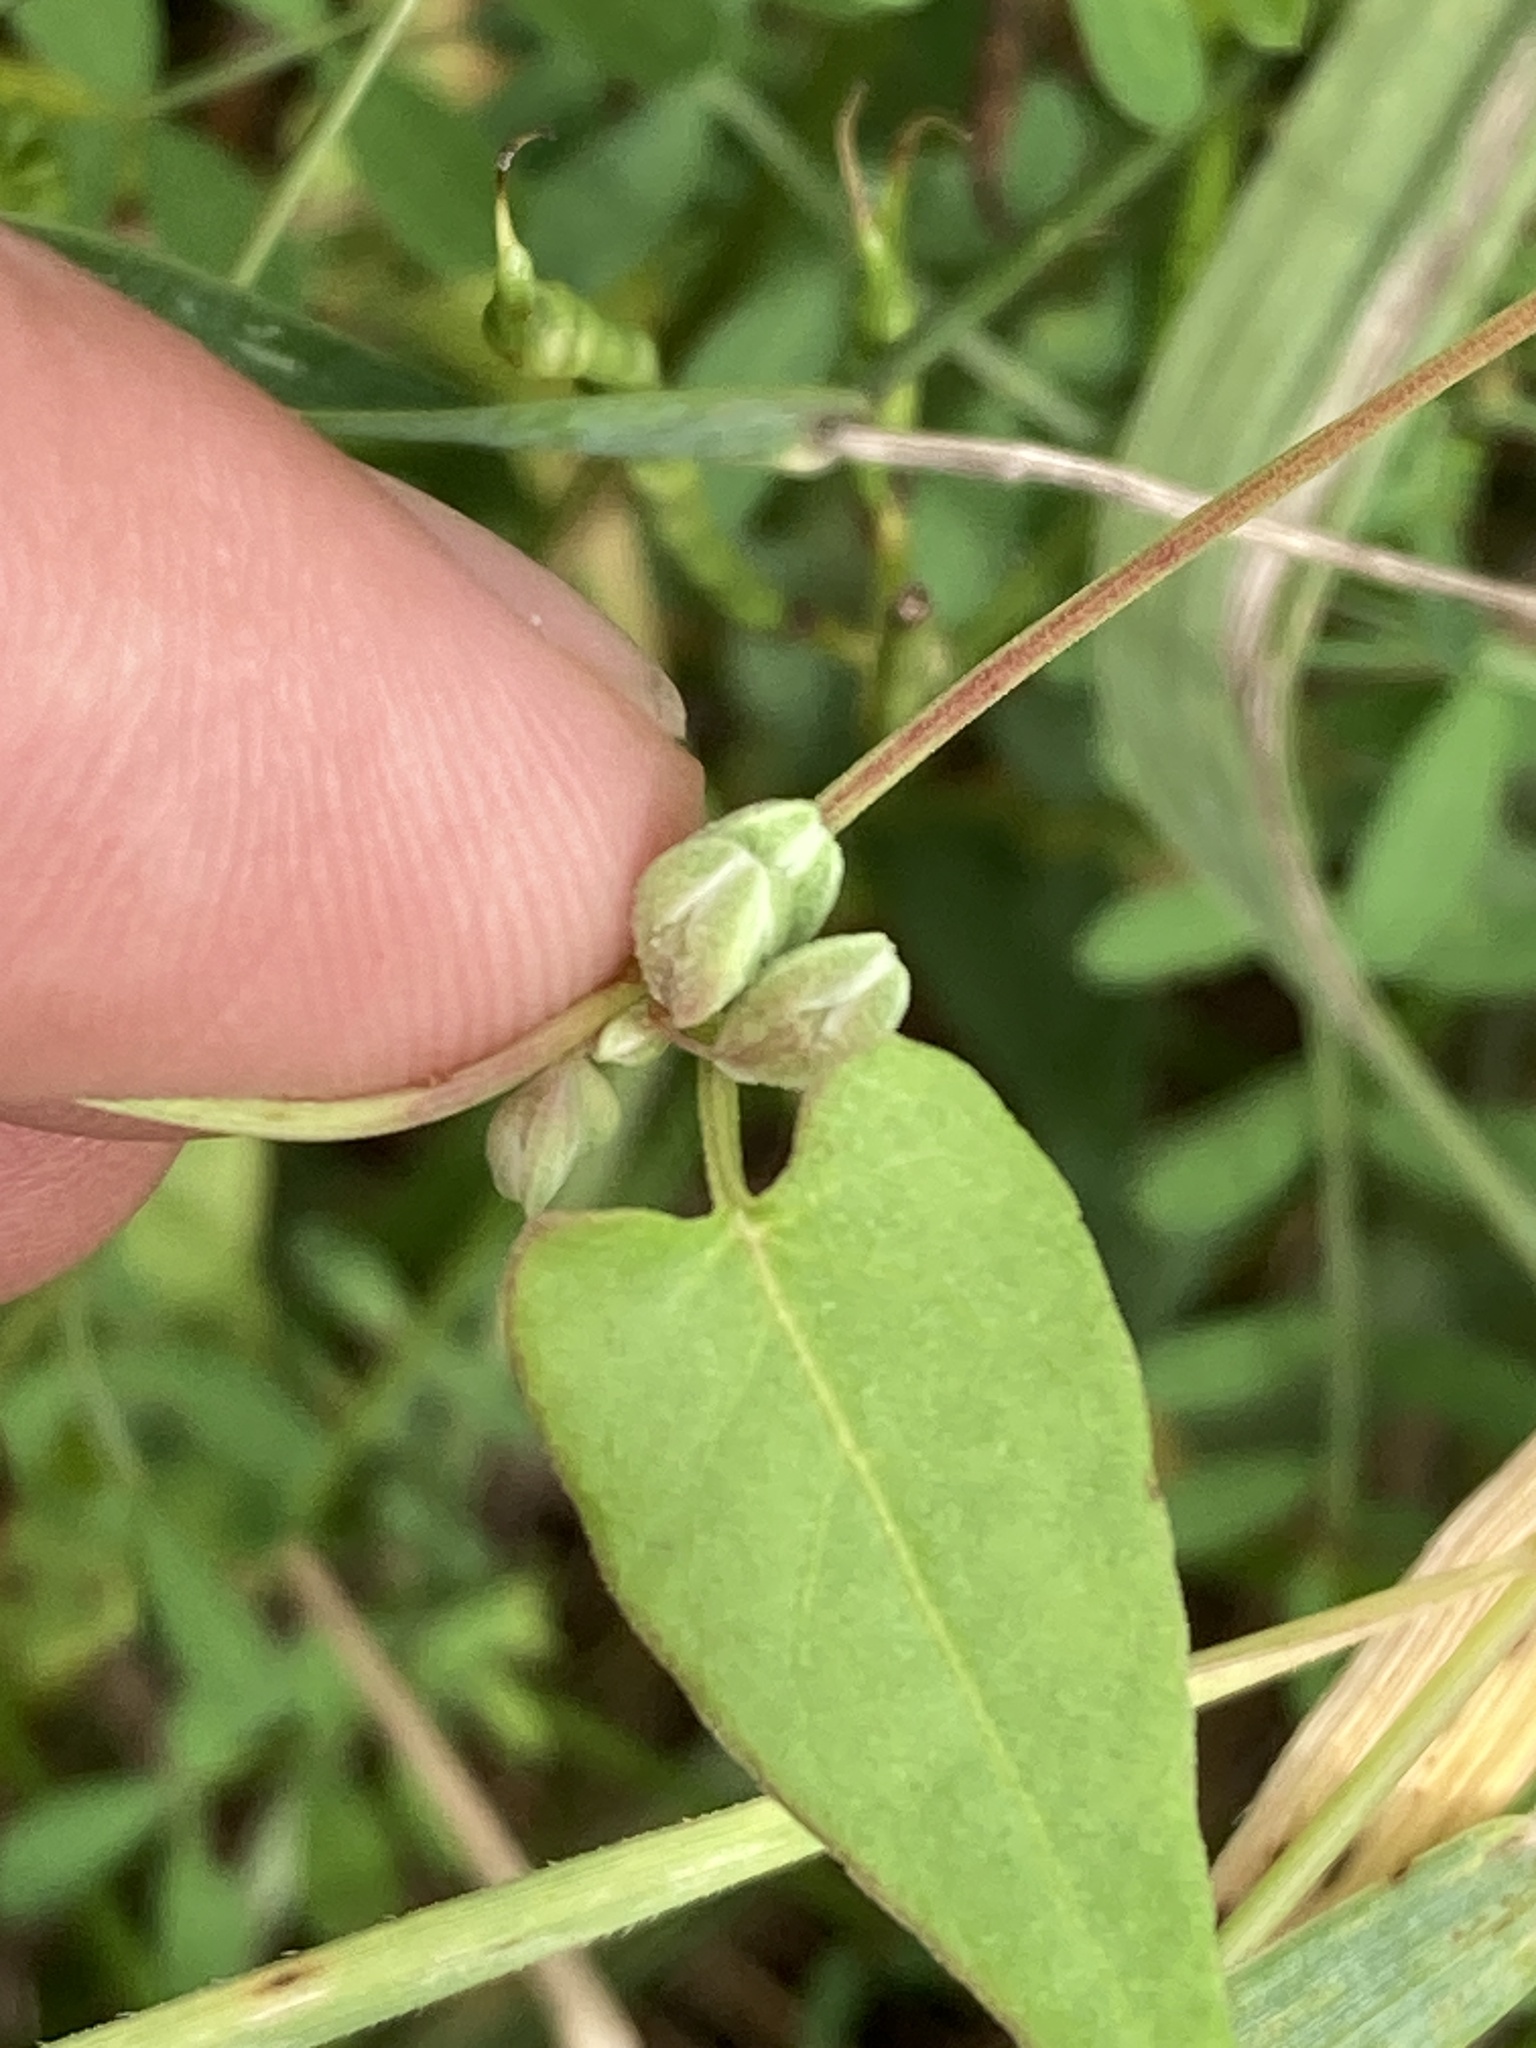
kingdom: Plantae
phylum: Tracheophyta
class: Magnoliopsida
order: Caryophyllales
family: Polygonaceae
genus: Fallopia
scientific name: Fallopia convolvulus
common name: Black bindweed
